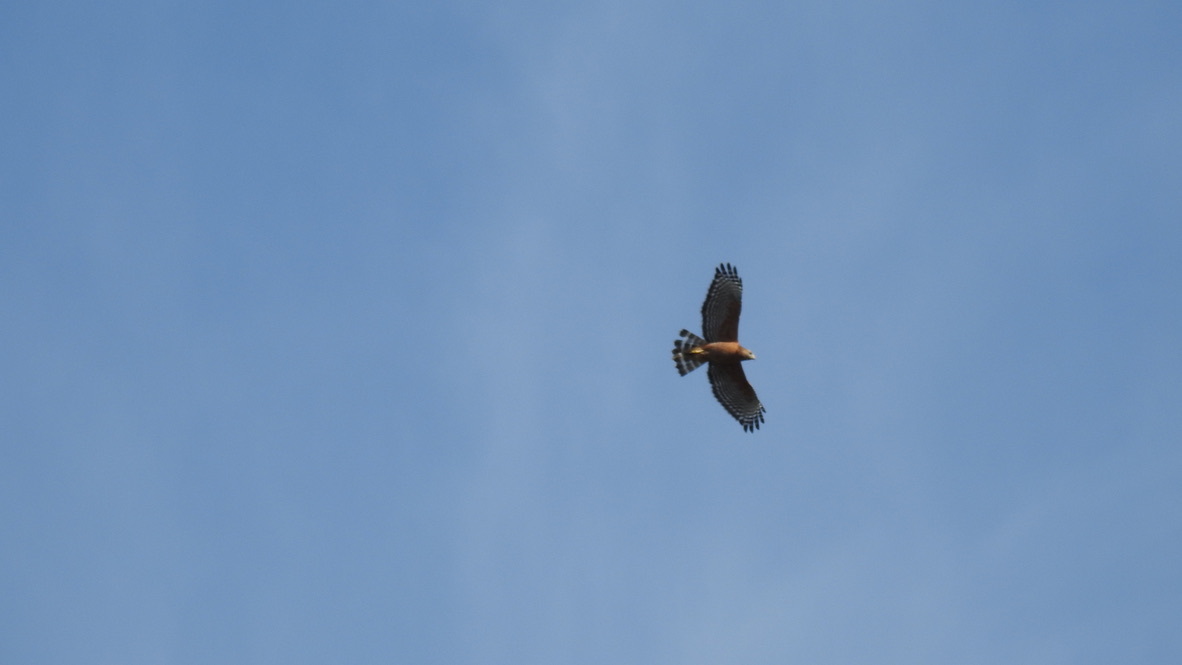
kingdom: Animalia
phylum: Chordata
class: Aves
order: Accipitriformes
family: Accipitridae
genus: Buteo
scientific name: Buteo lineatus
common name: Red-shouldered hawk
